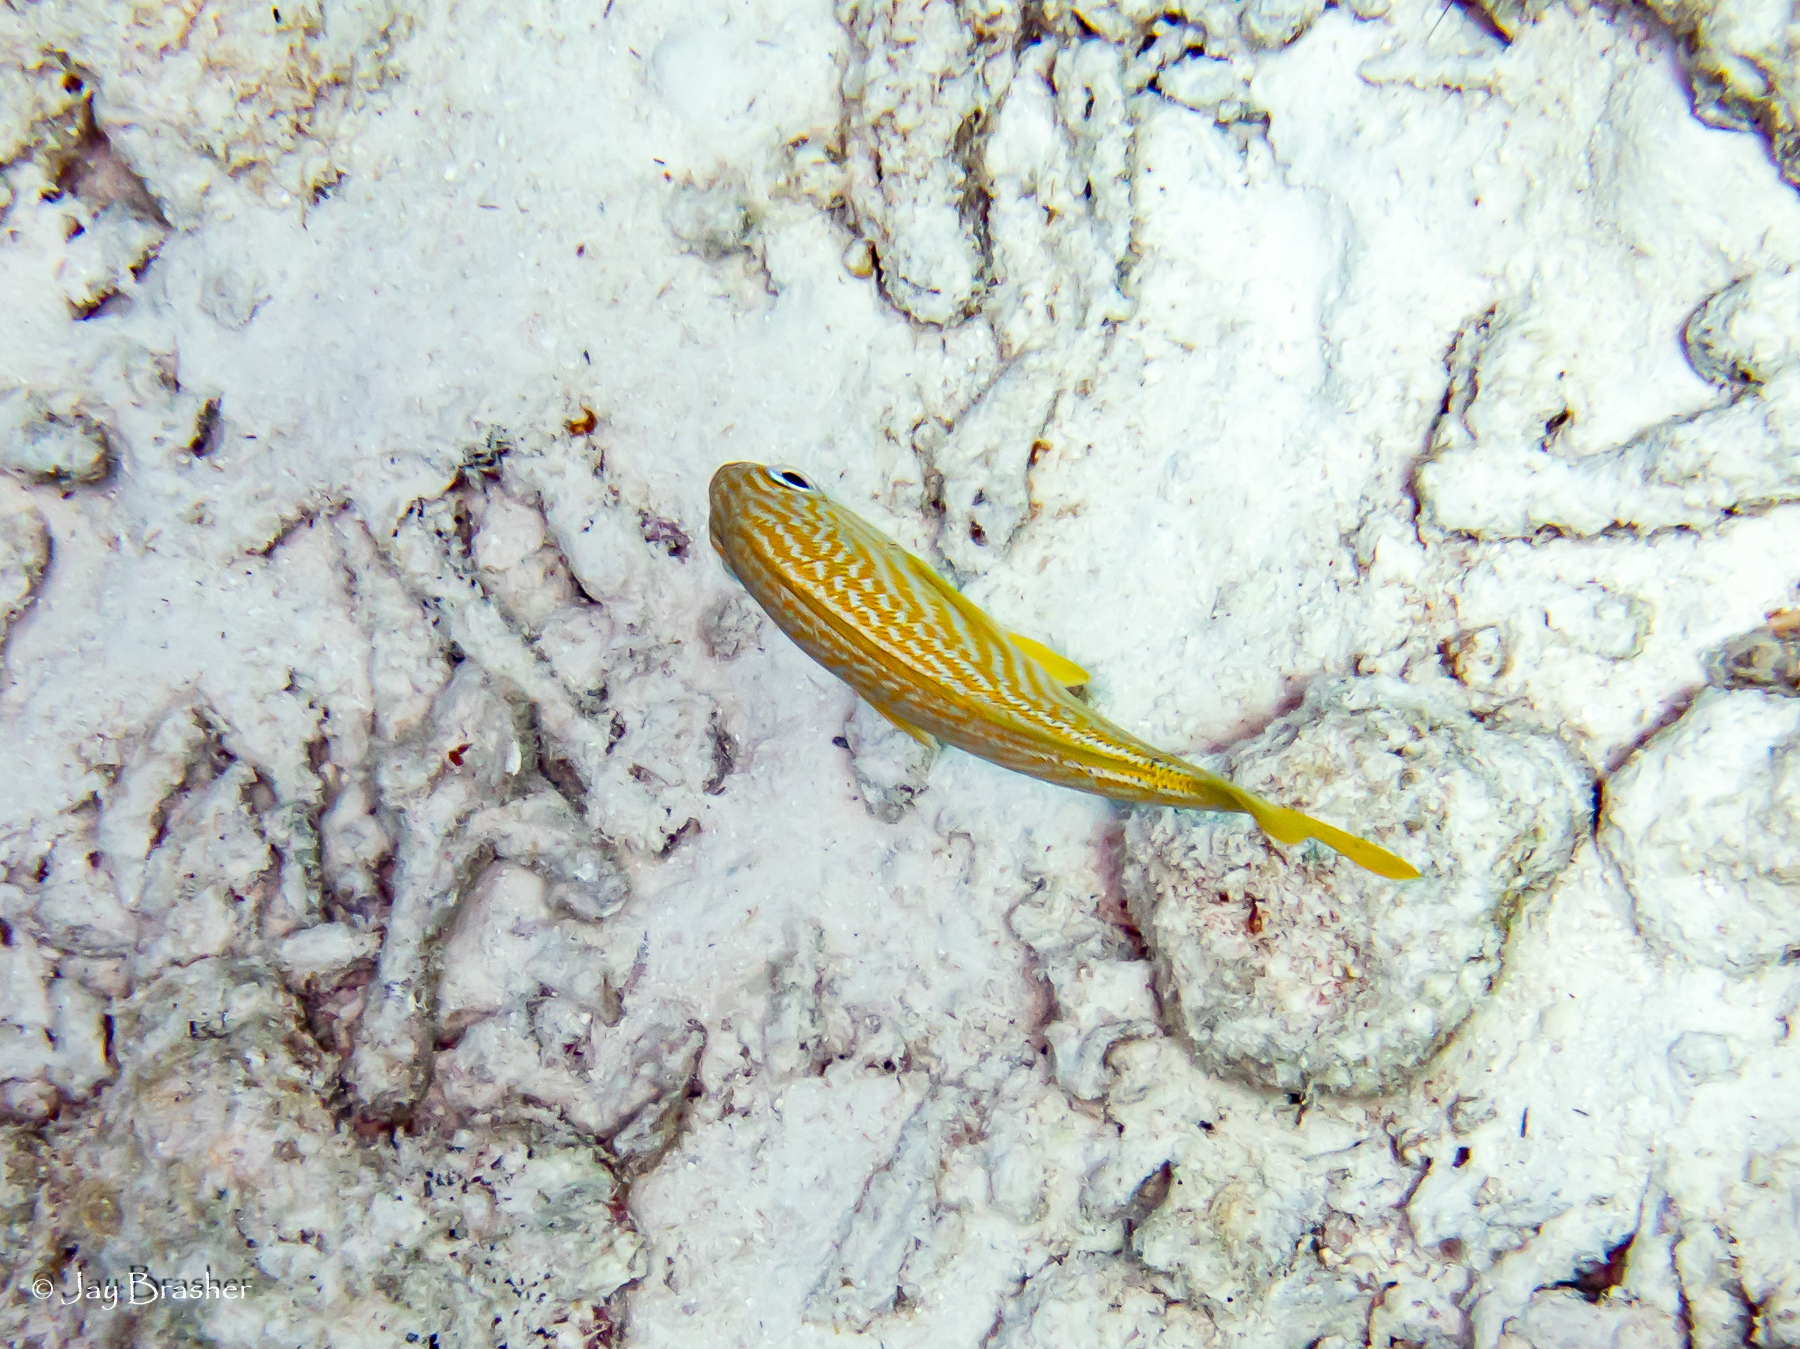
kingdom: Animalia
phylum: Chordata
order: Perciformes
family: Haemulidae
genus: Haemulon
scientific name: Haemulon flavolineatum
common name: French grunt
